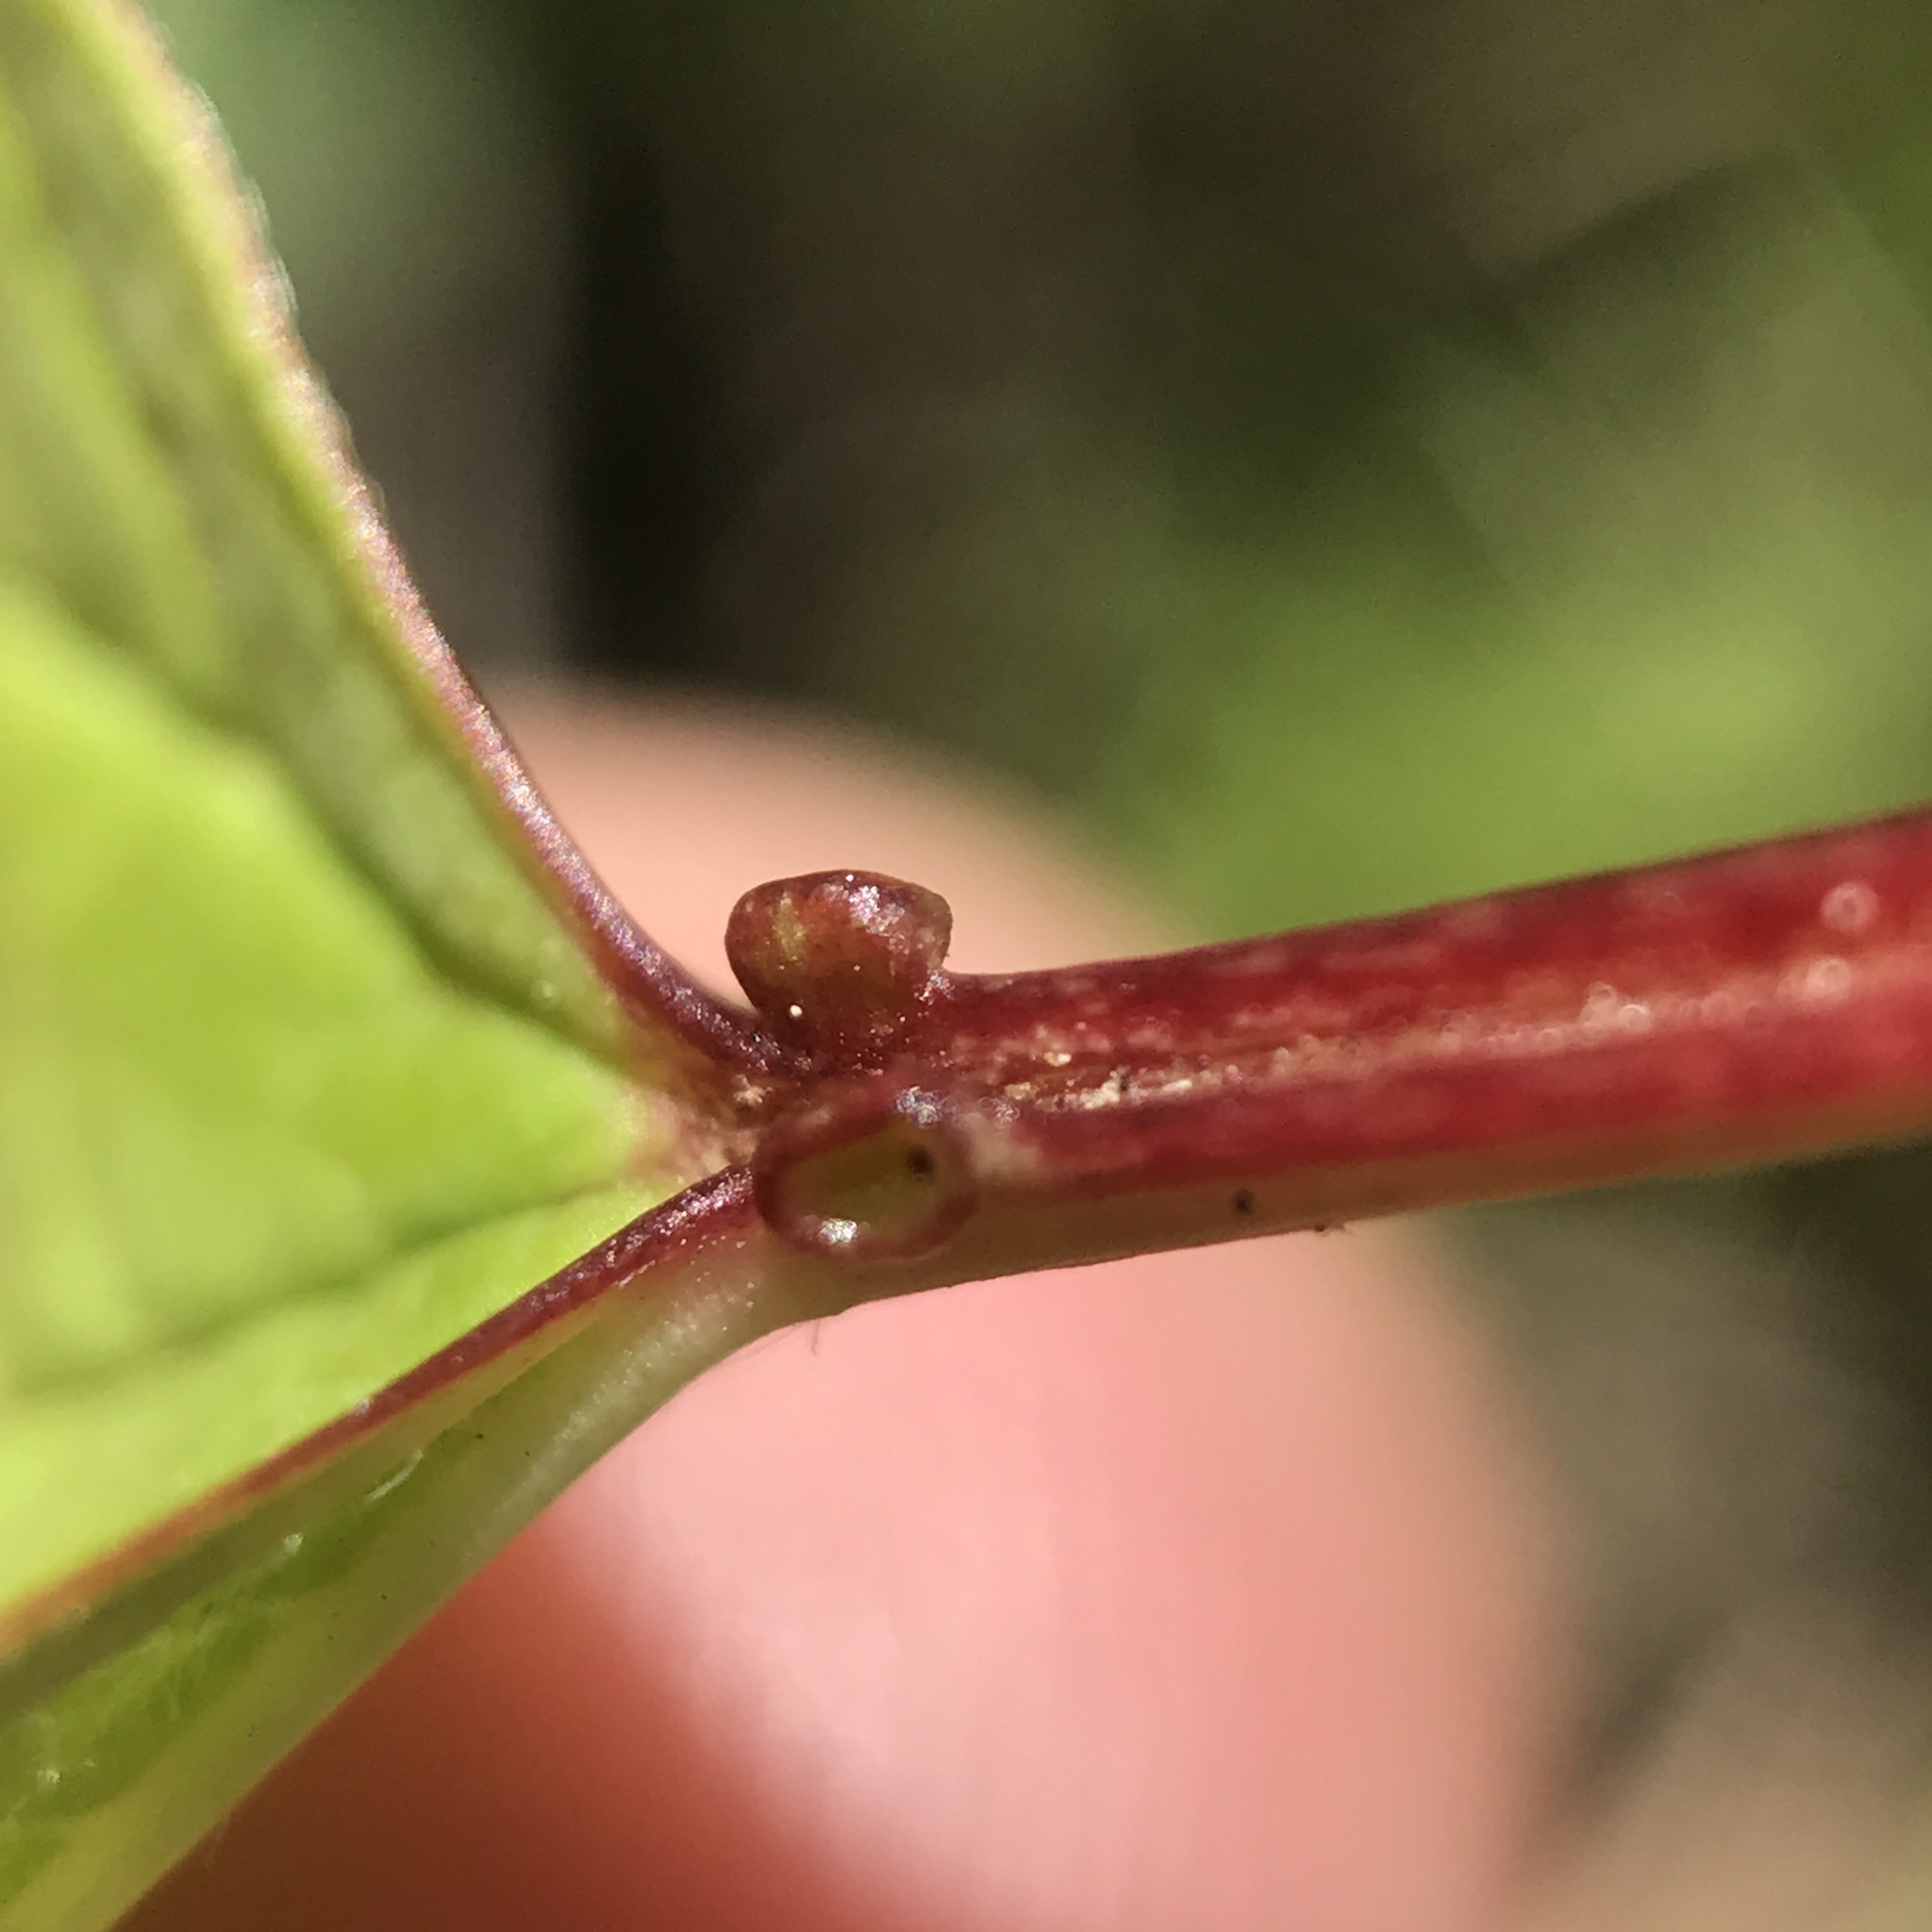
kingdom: Plantae
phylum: Tracheophyta
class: Magnoliopsida
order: Dipsacales
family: Viburnaceae
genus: Viburnum
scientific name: Viburnum opulus
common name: Guelder-rose
